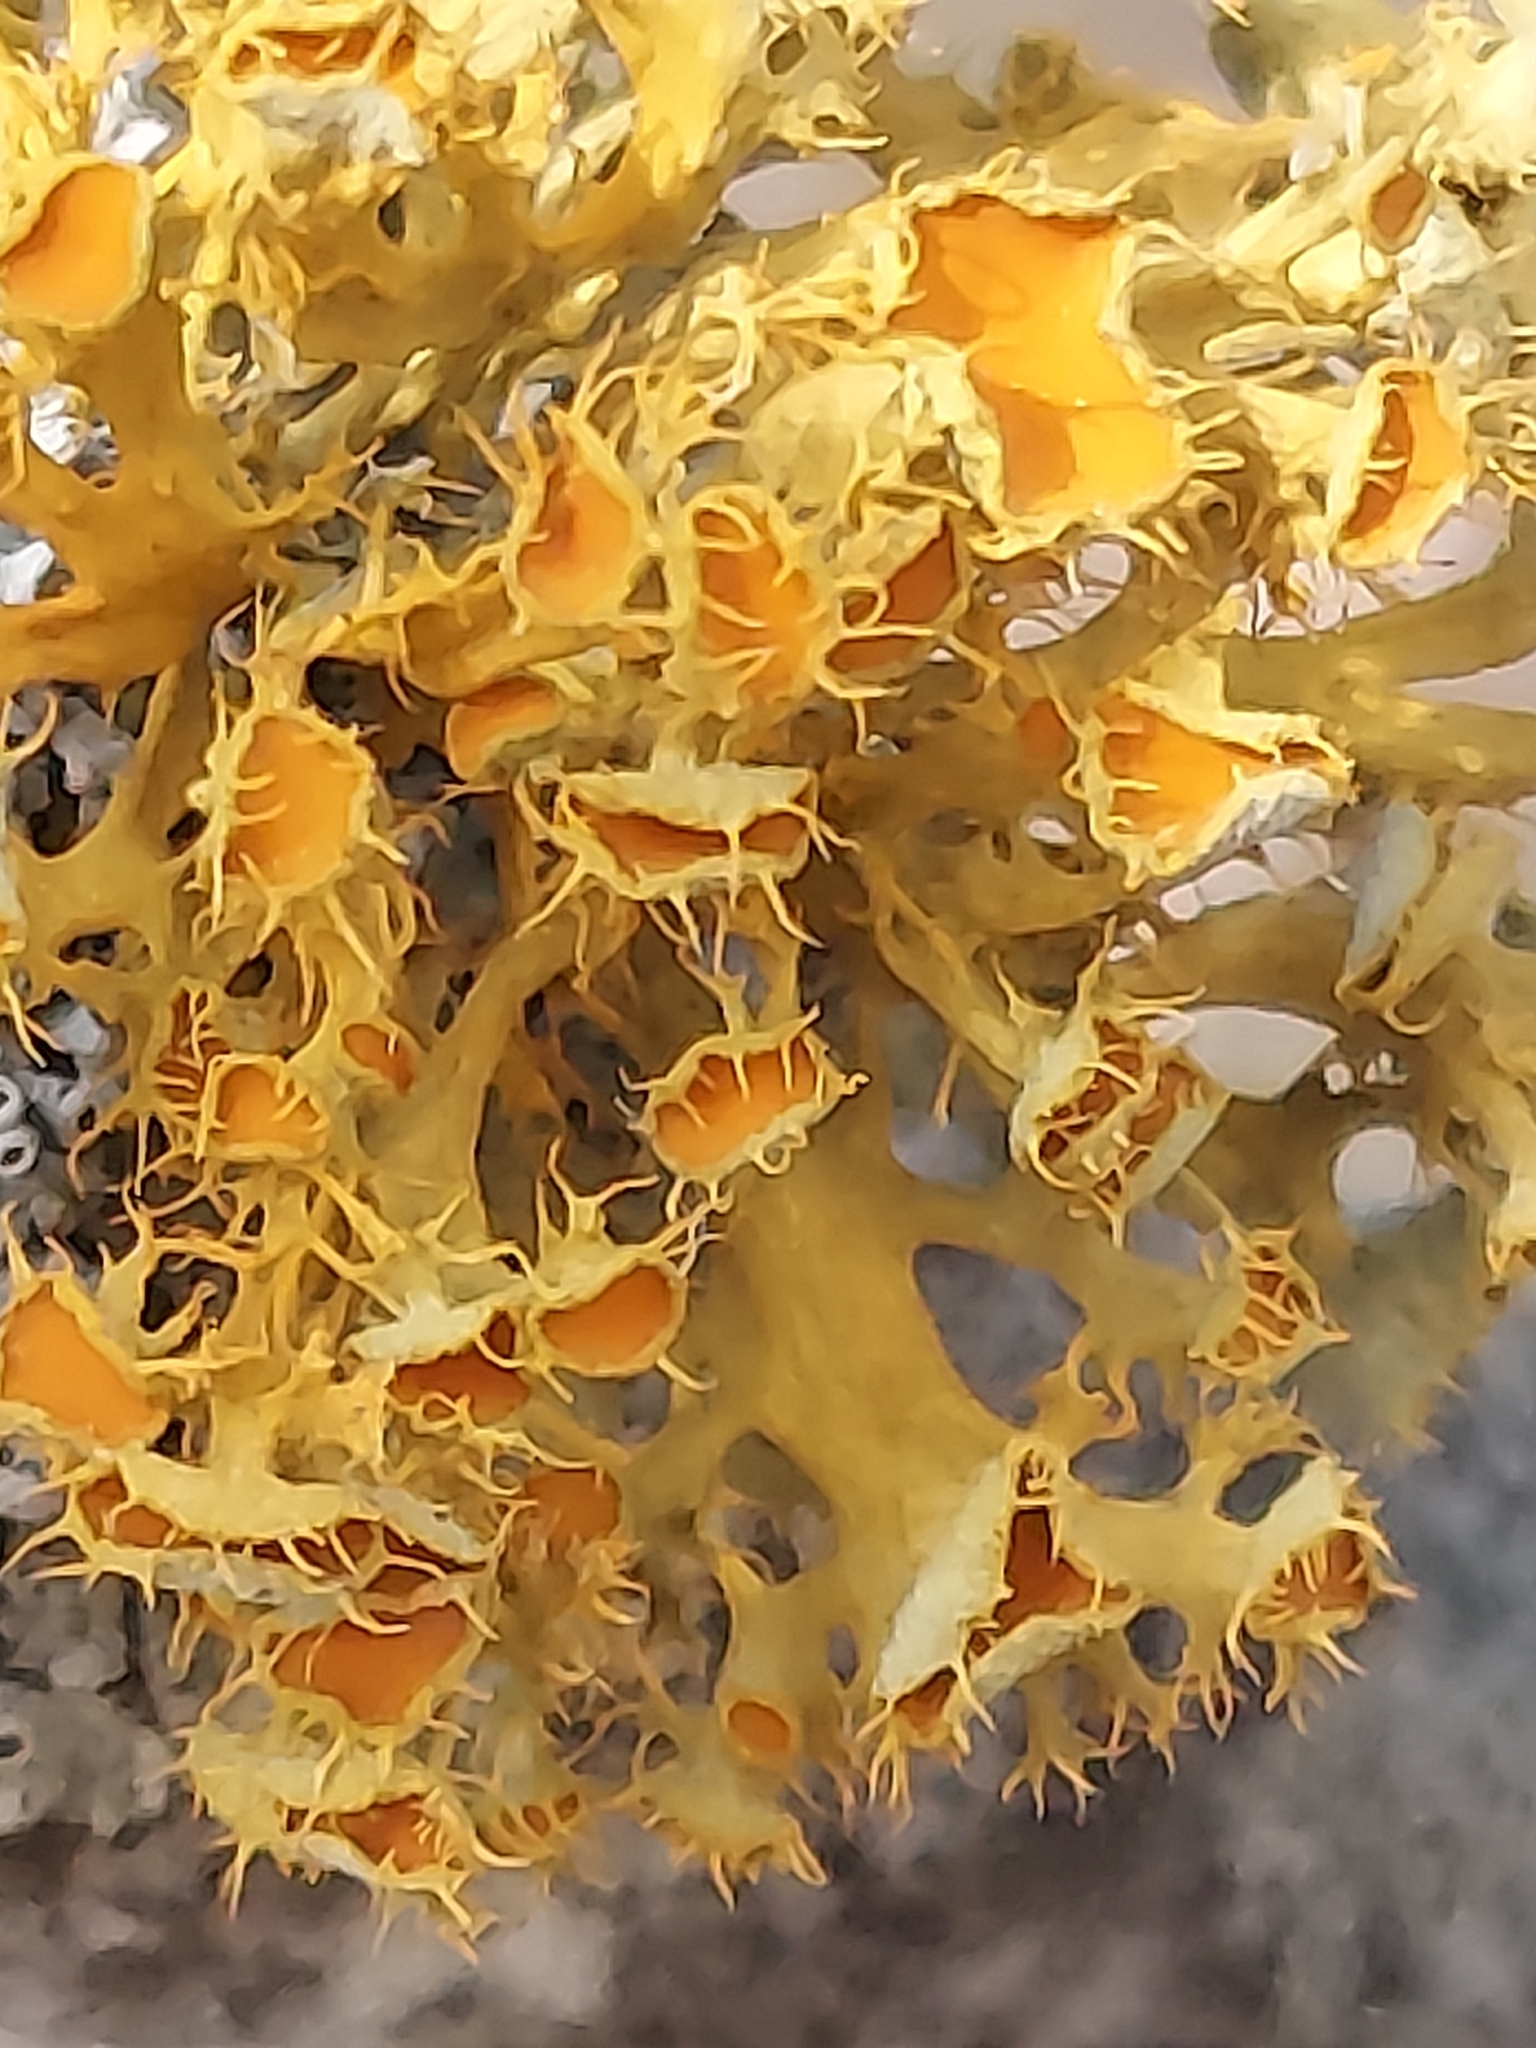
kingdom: Fungi
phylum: Ascomycota
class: Lecanoromycetes
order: Teloschistales
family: Teloschistaceae
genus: Niorma
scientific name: Niorma chrysophthalma
